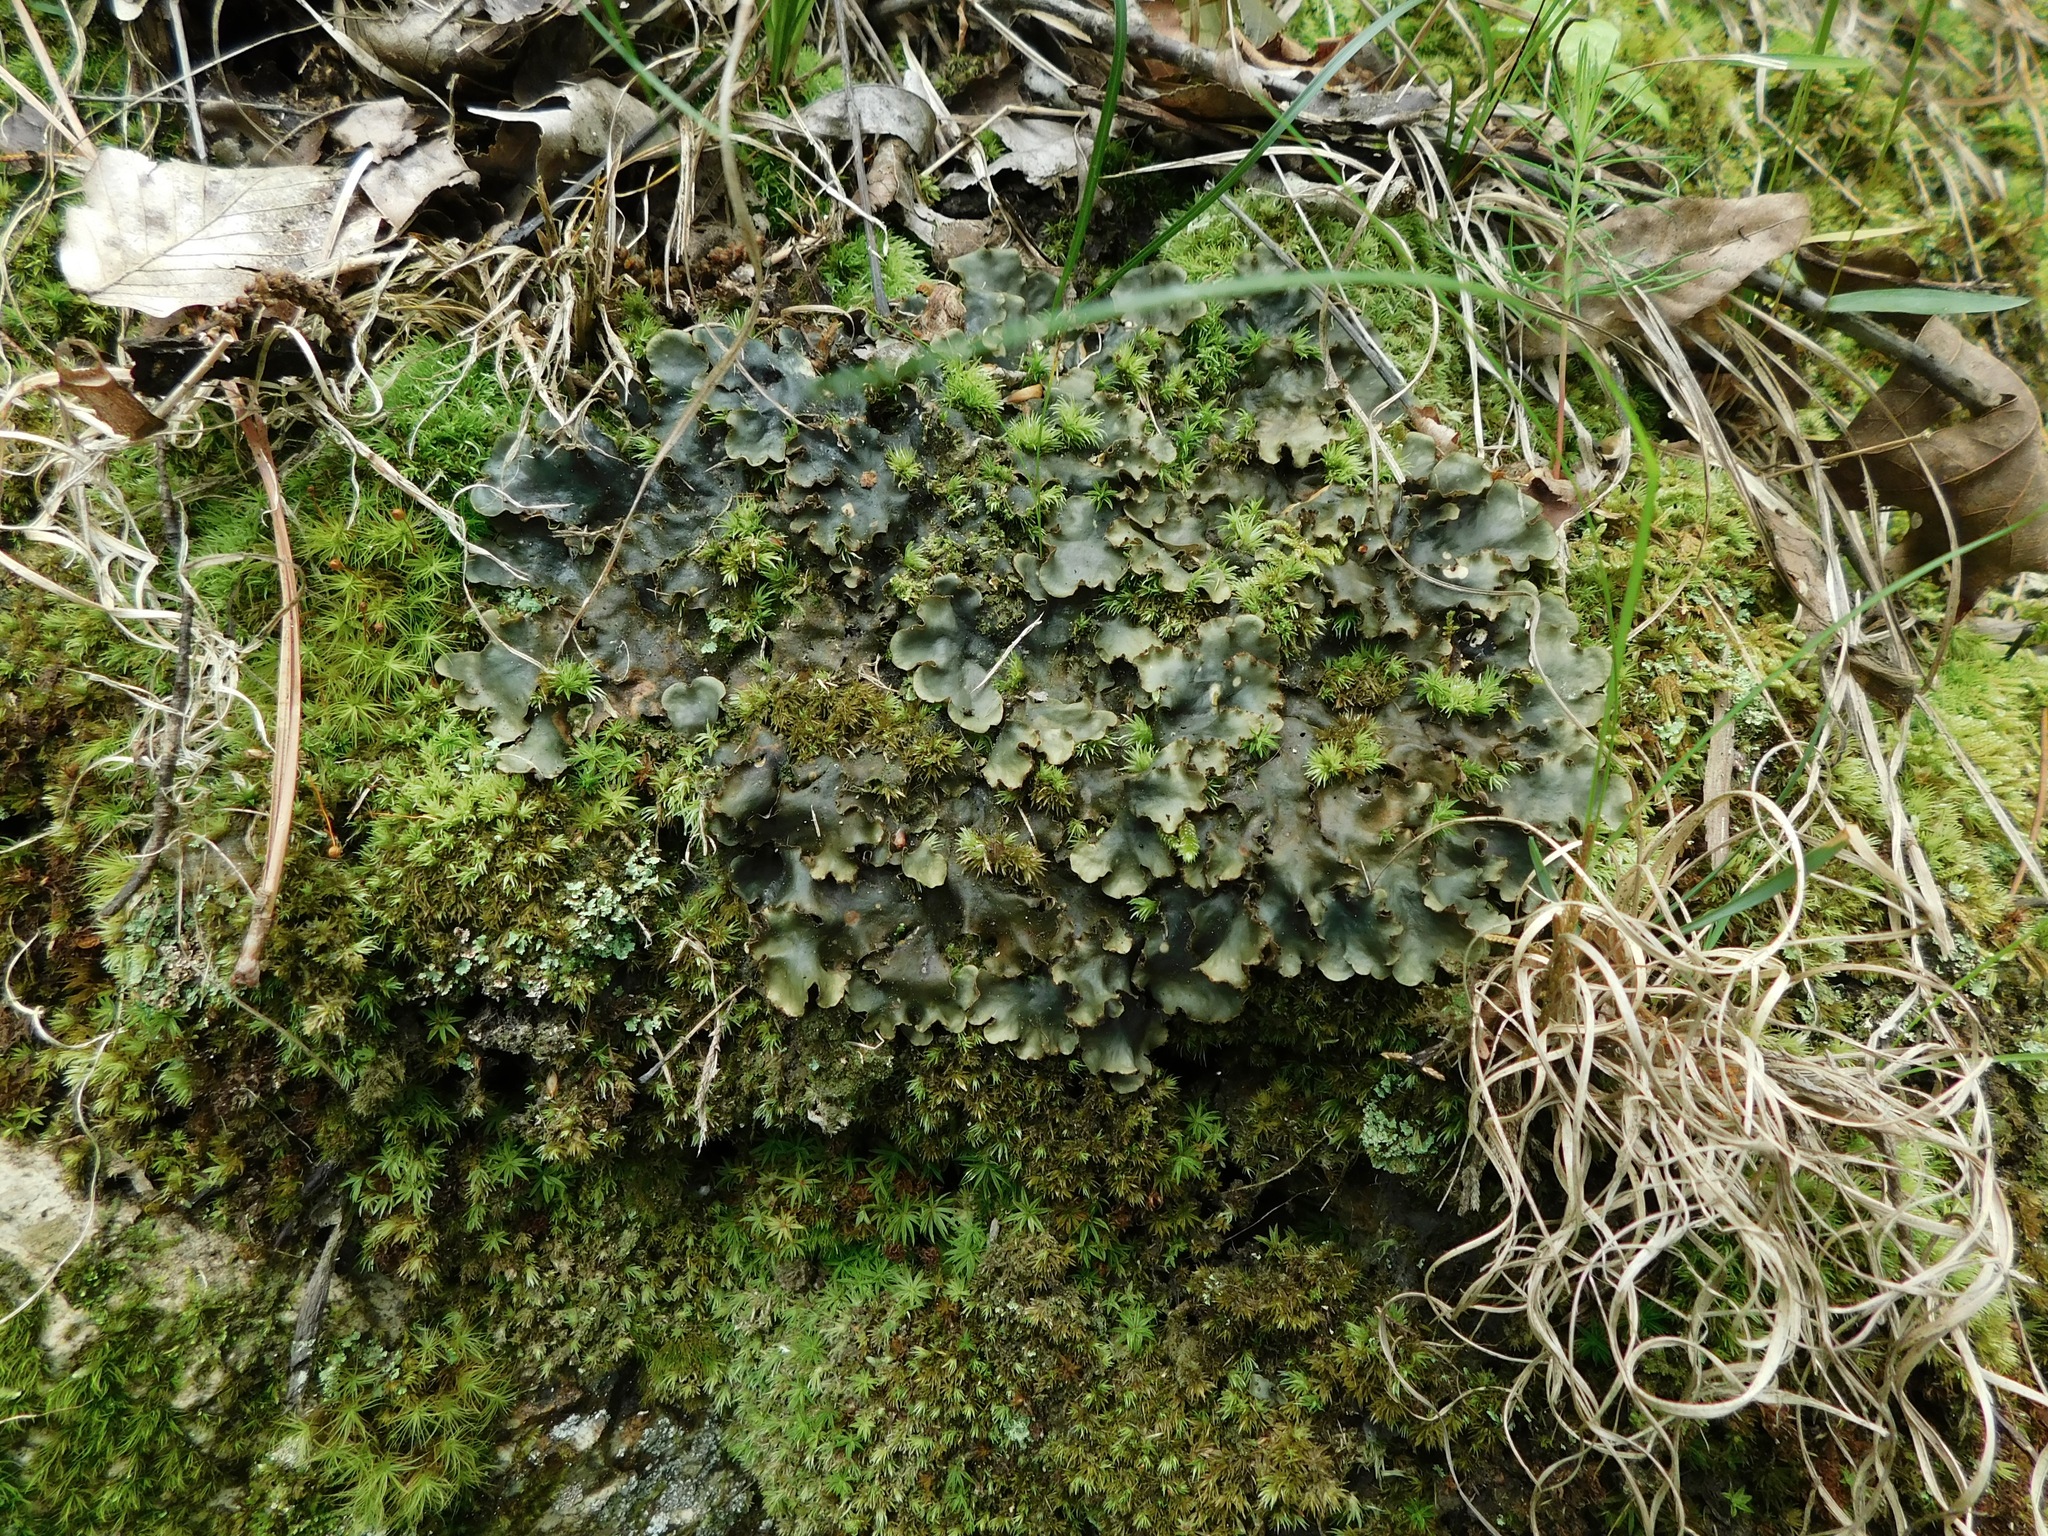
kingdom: Fungi
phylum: Ascomycota
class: Lecanoromycetes
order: Peltigerales
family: Peltigeraceae
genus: Peltigera
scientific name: Peltigera phyllidiosa
